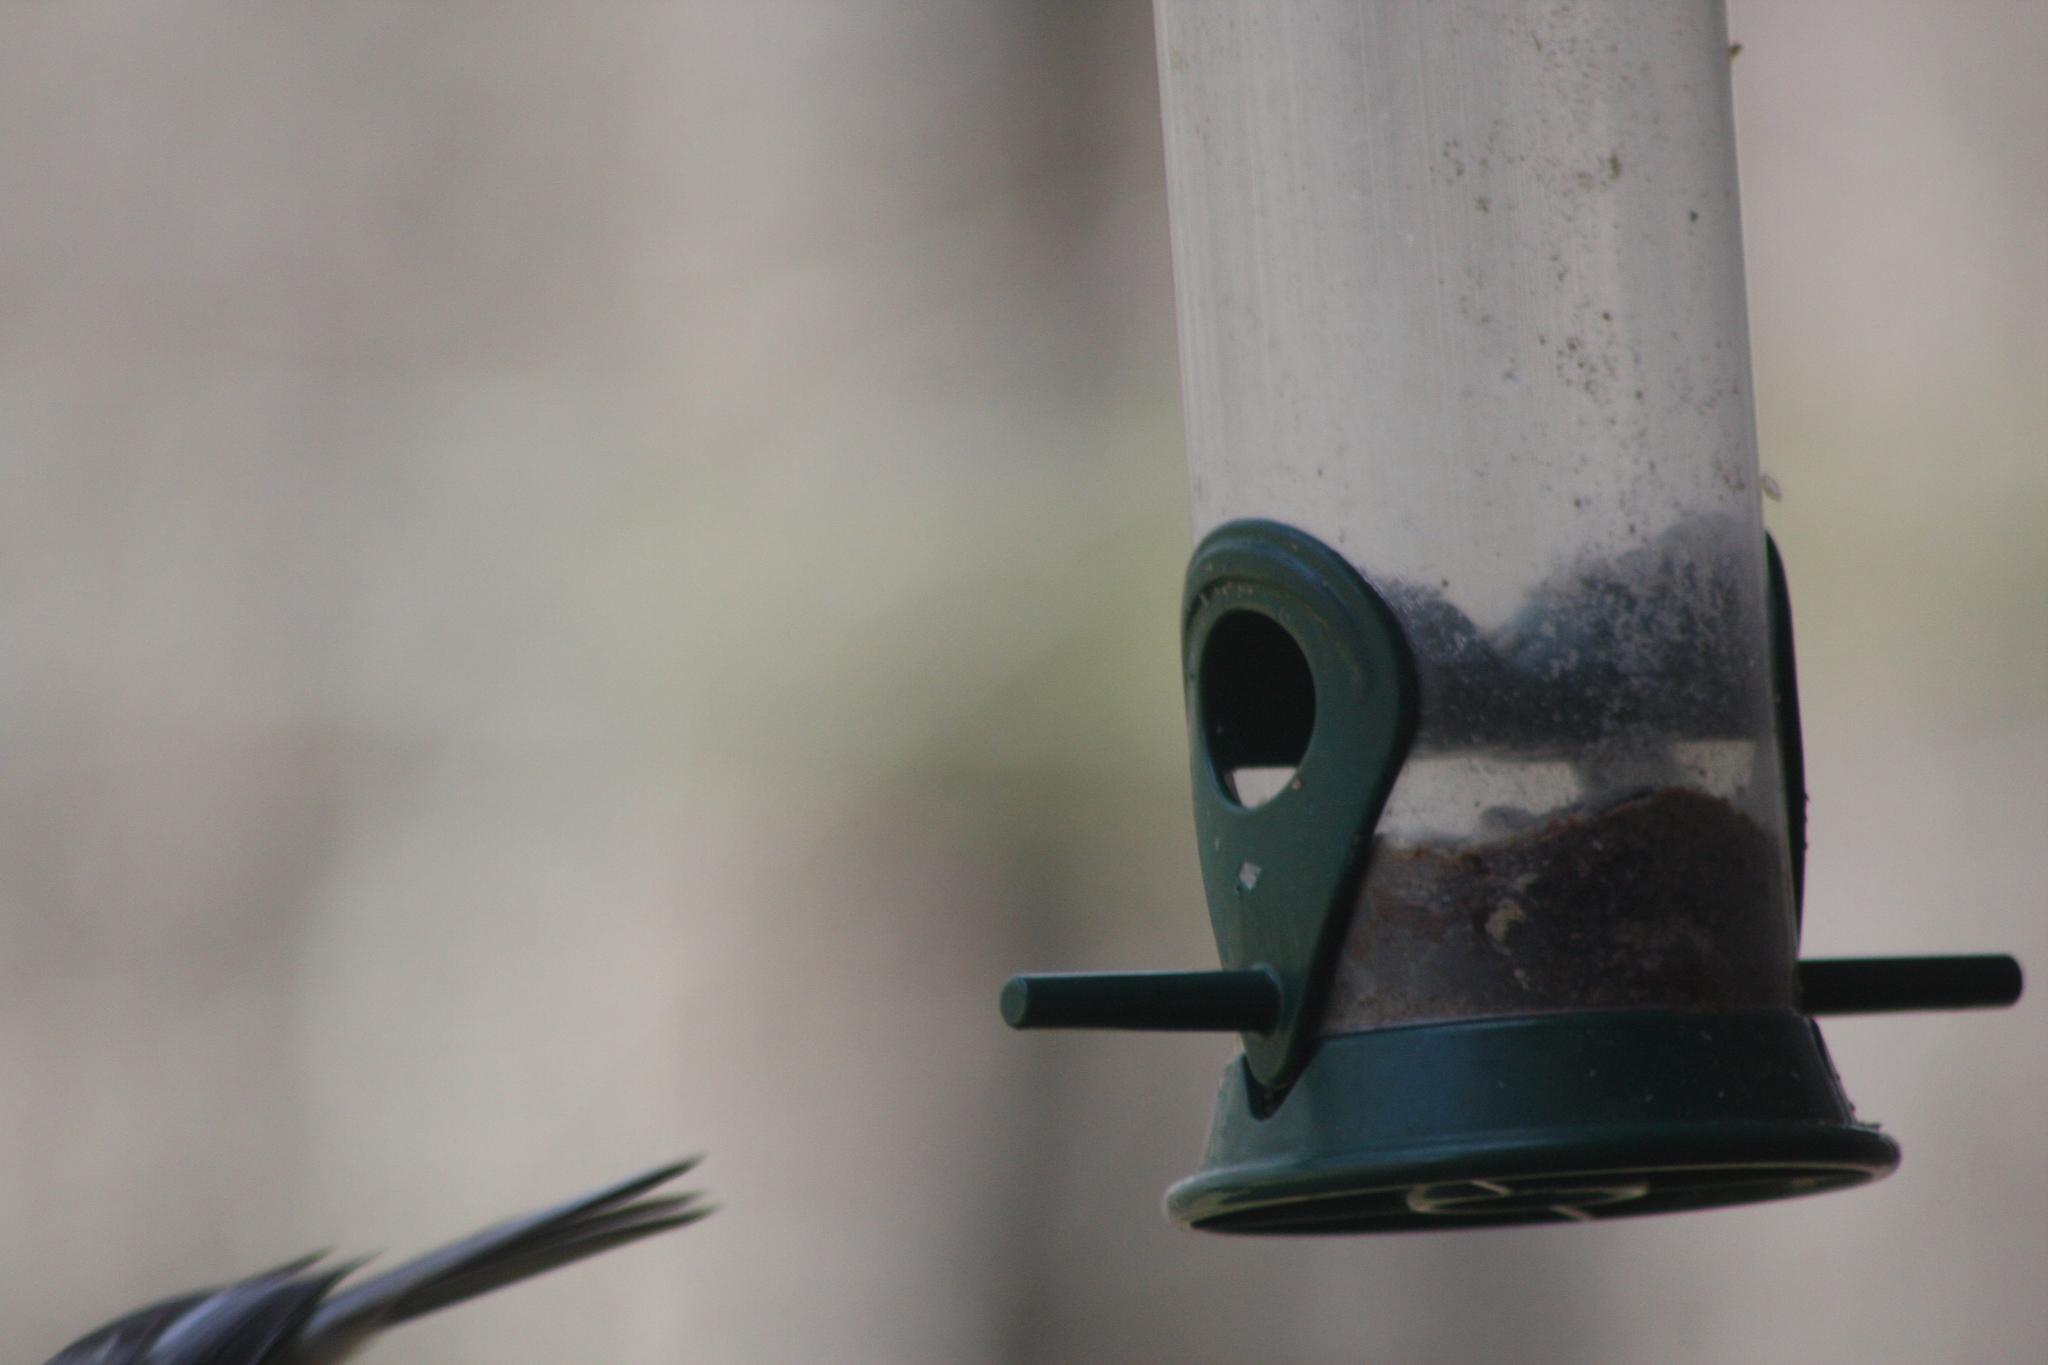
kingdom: Animalia
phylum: Chordata
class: Aves
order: Passeriformes
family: Paridae
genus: Poecile
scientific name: Poecile atricapillus
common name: Black-capped chickadee
